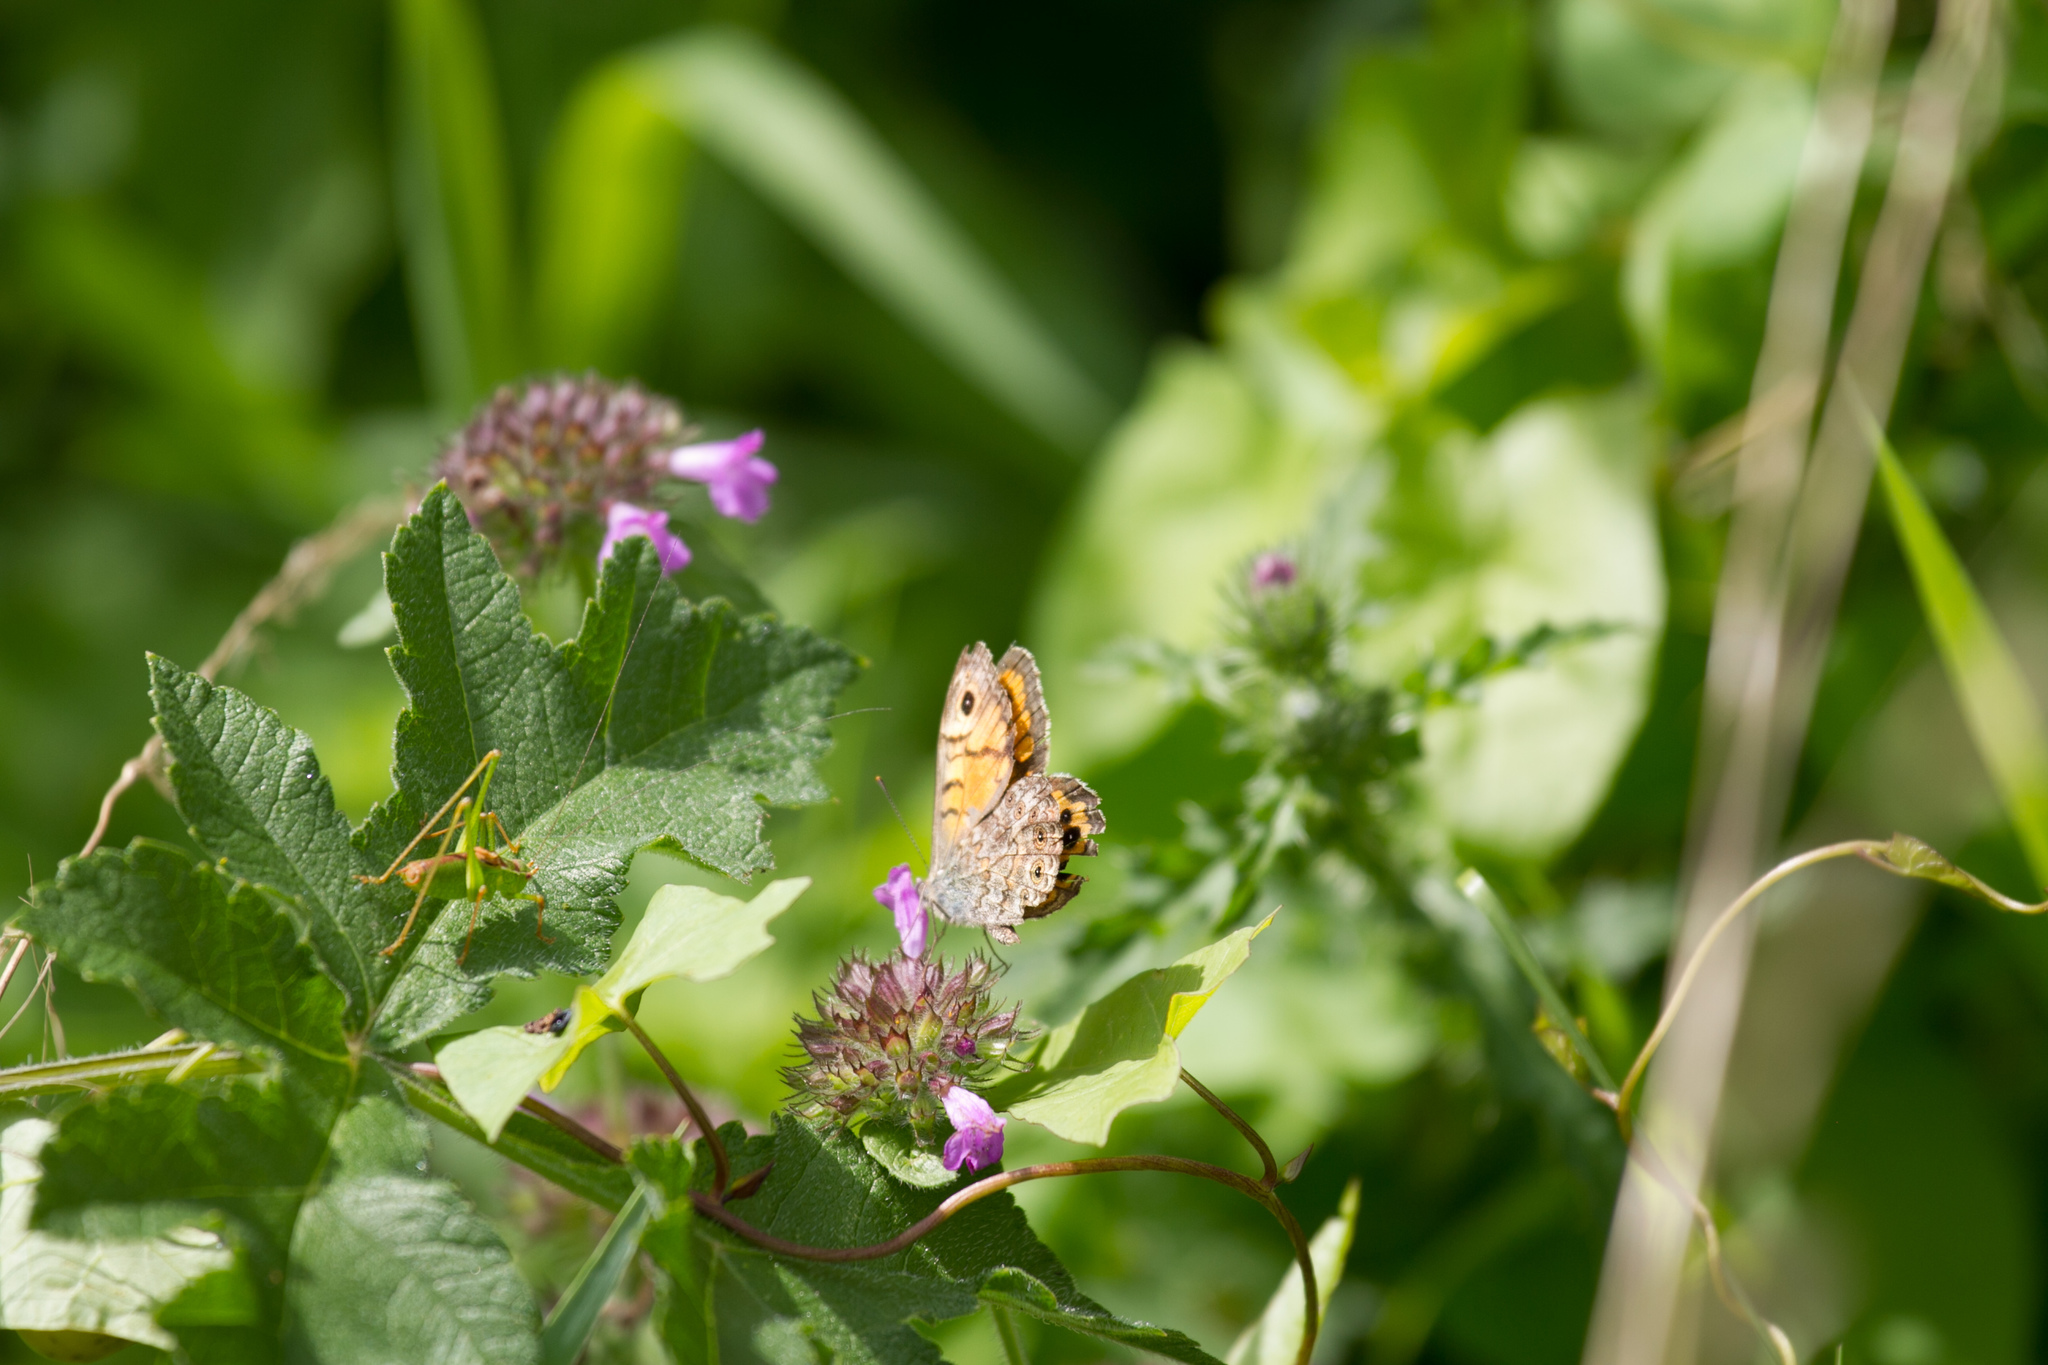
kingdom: Animalia
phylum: Arthropoda
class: Insecta
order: Lepidoptera
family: Nymphalidae
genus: Pararge
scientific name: Pararge Lasiommata megera
